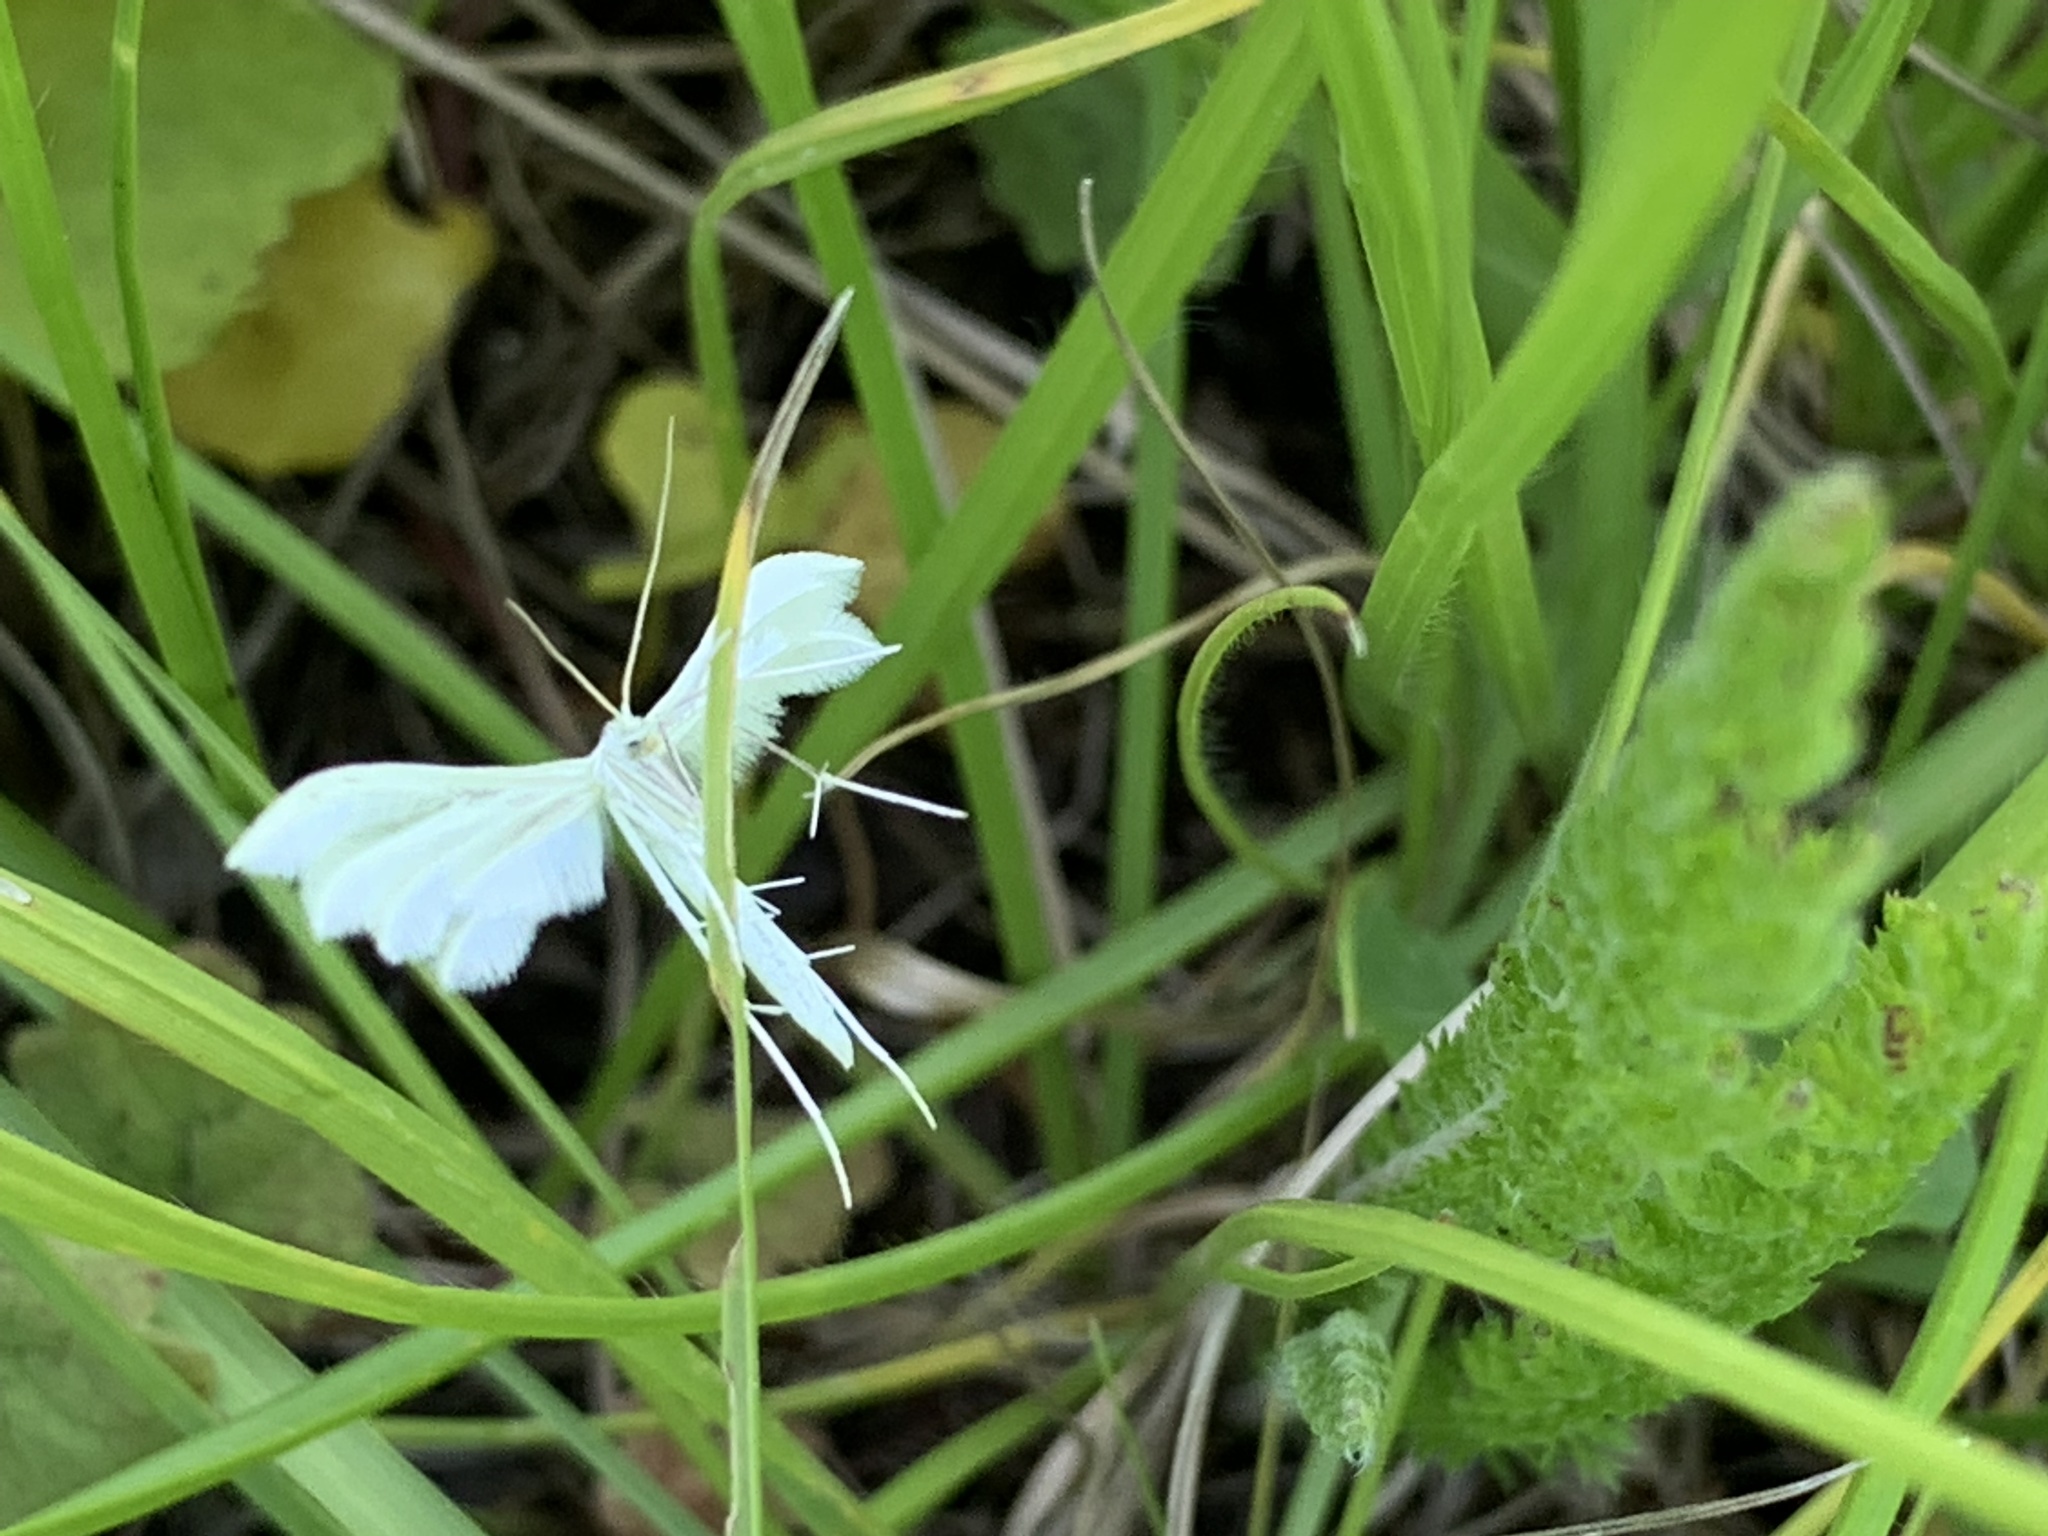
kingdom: Animalia
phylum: Arthropoda
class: Insecta
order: Lepidoptera
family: Pterophoridae
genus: Pterophorus
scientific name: Pterophorus pentadactyla
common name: White plume moth
